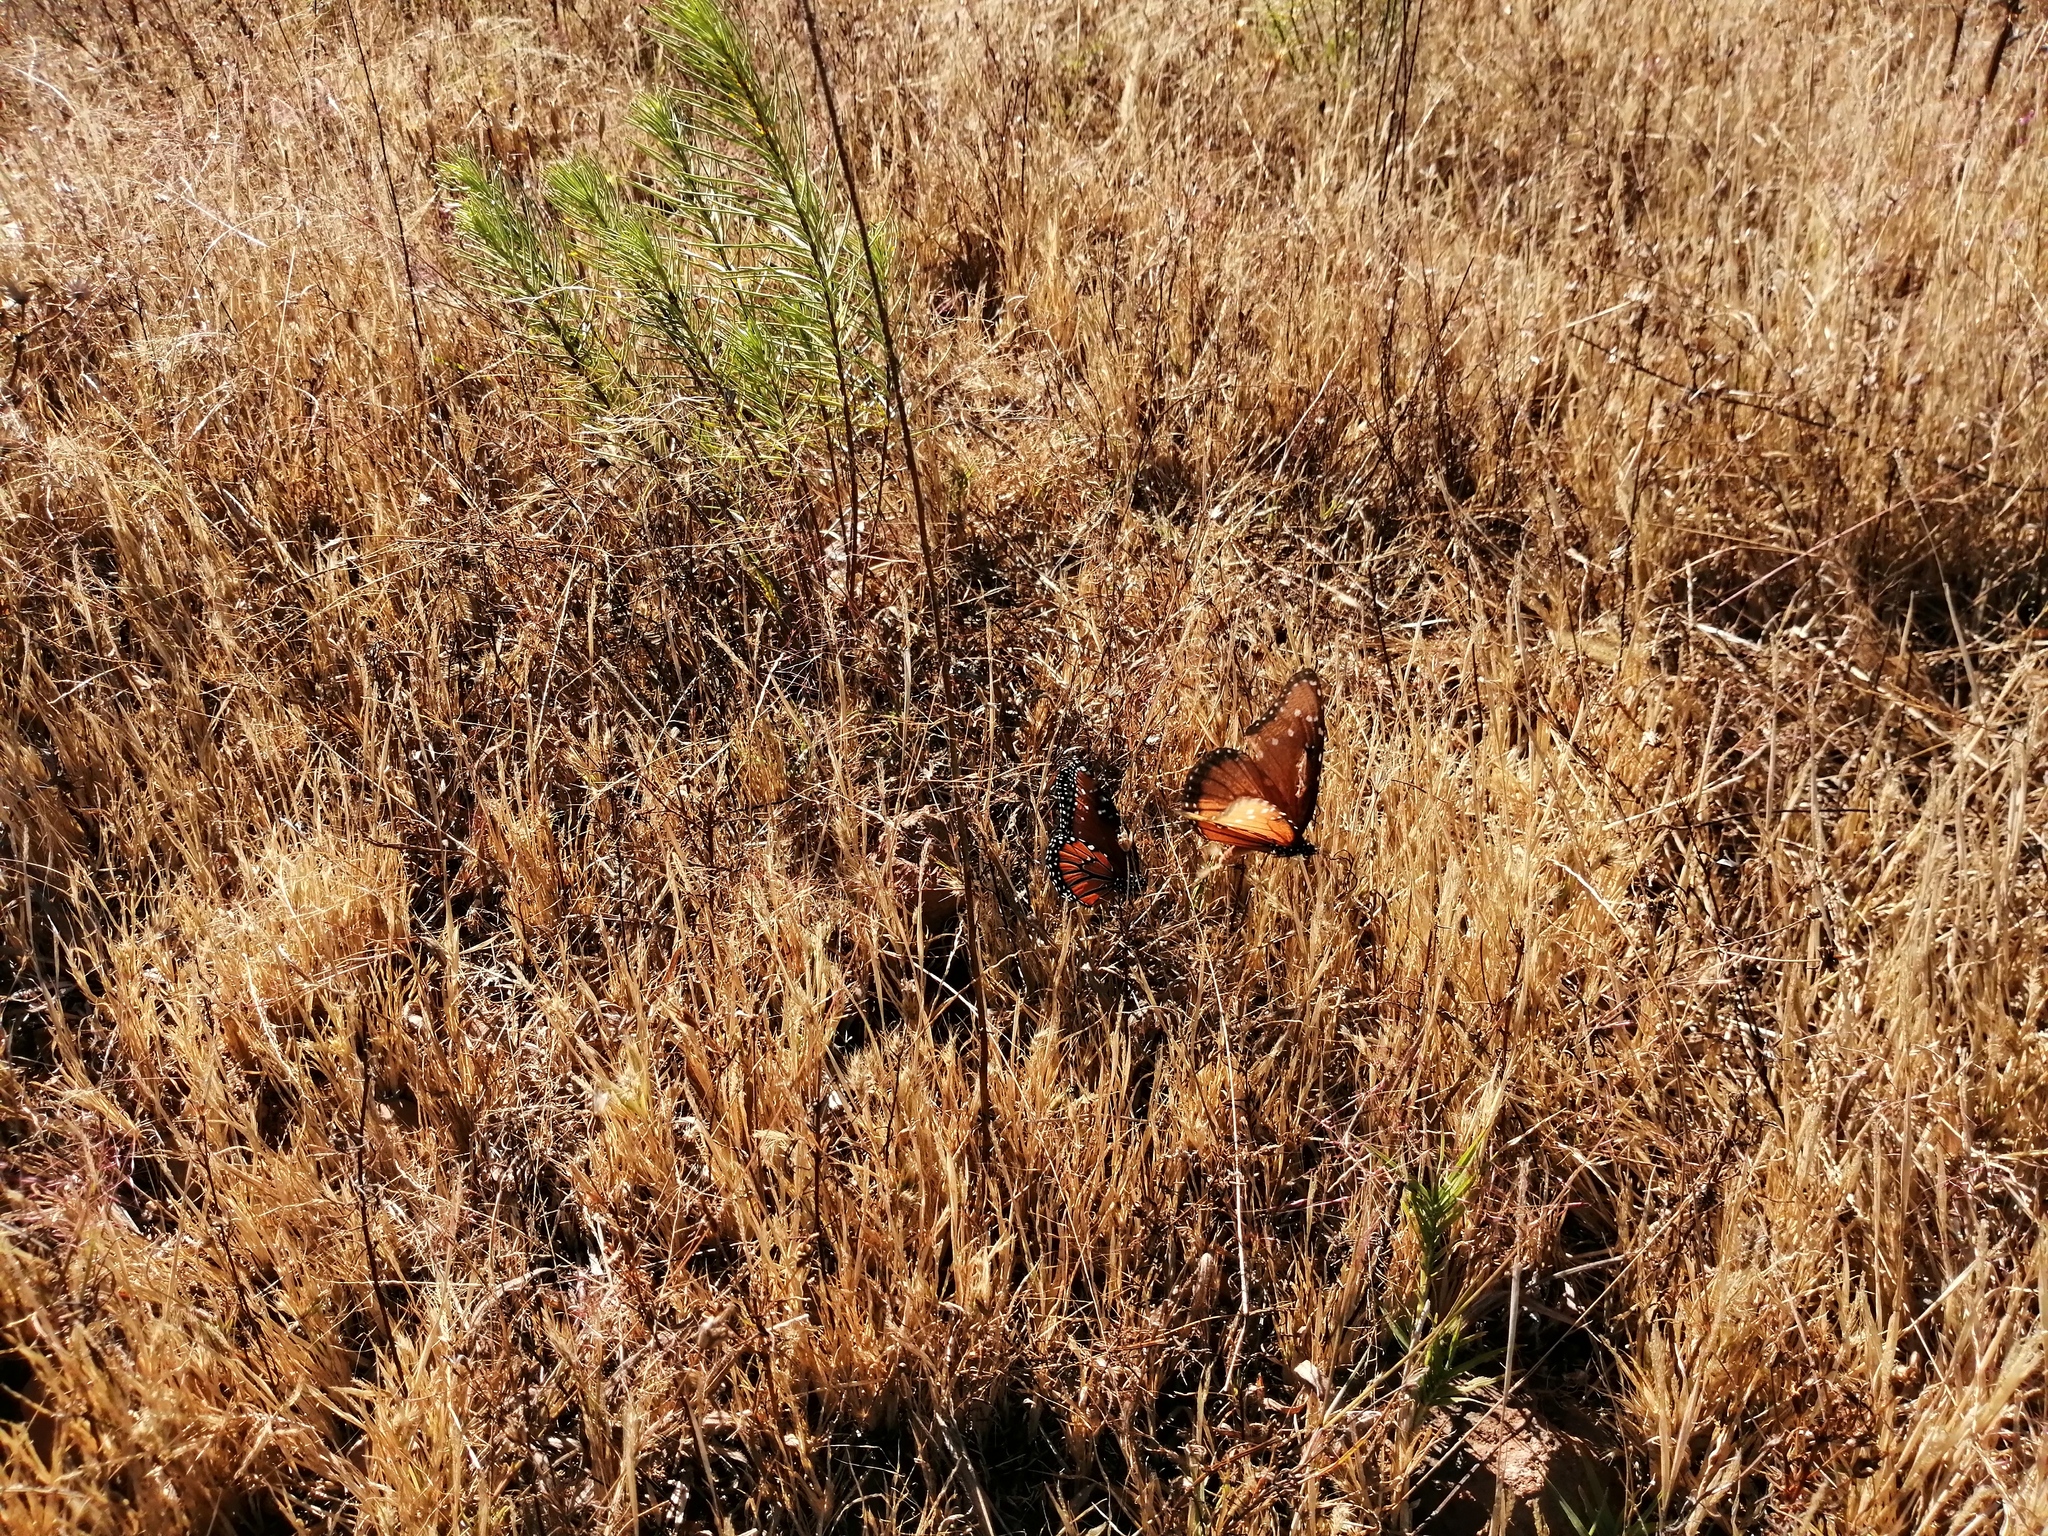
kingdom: Animalia
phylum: Arthropoda
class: Insecta
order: Lepidoptera
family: Nymphalidae
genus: Danaus
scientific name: Danaus gilippus
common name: Queen
